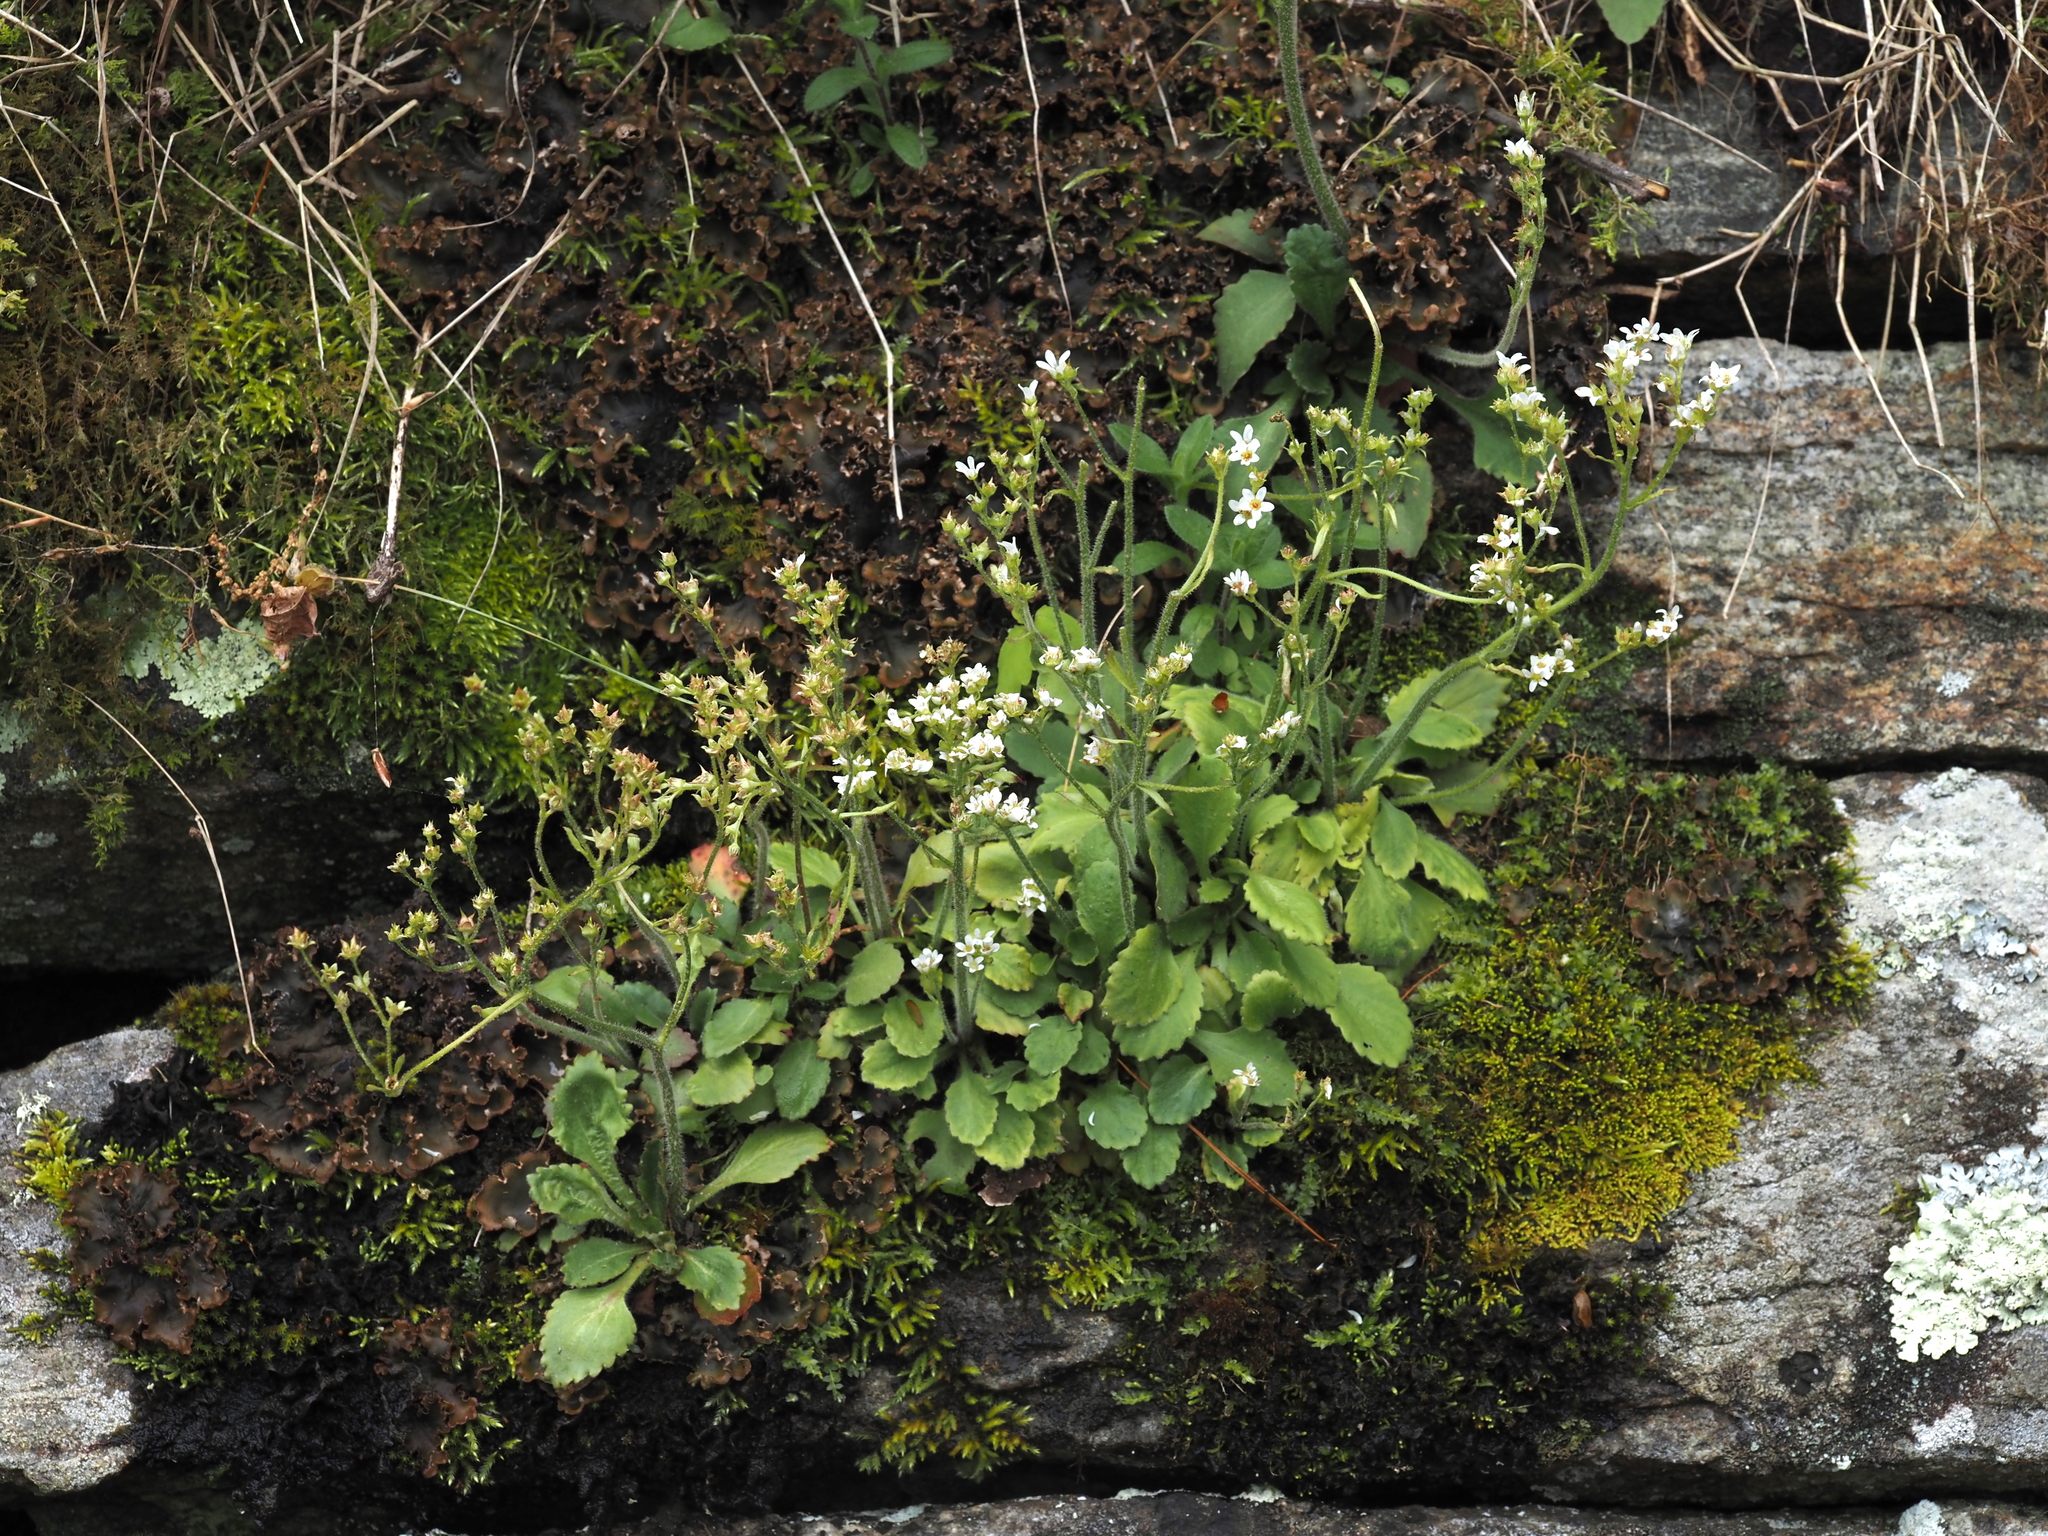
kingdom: Plantae
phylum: Tracheophyta
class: Magnoliopsida
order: Saxifragales
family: Saxifragaceae
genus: Micranthes
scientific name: Micranthes virginiensis
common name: Early saxifrage
